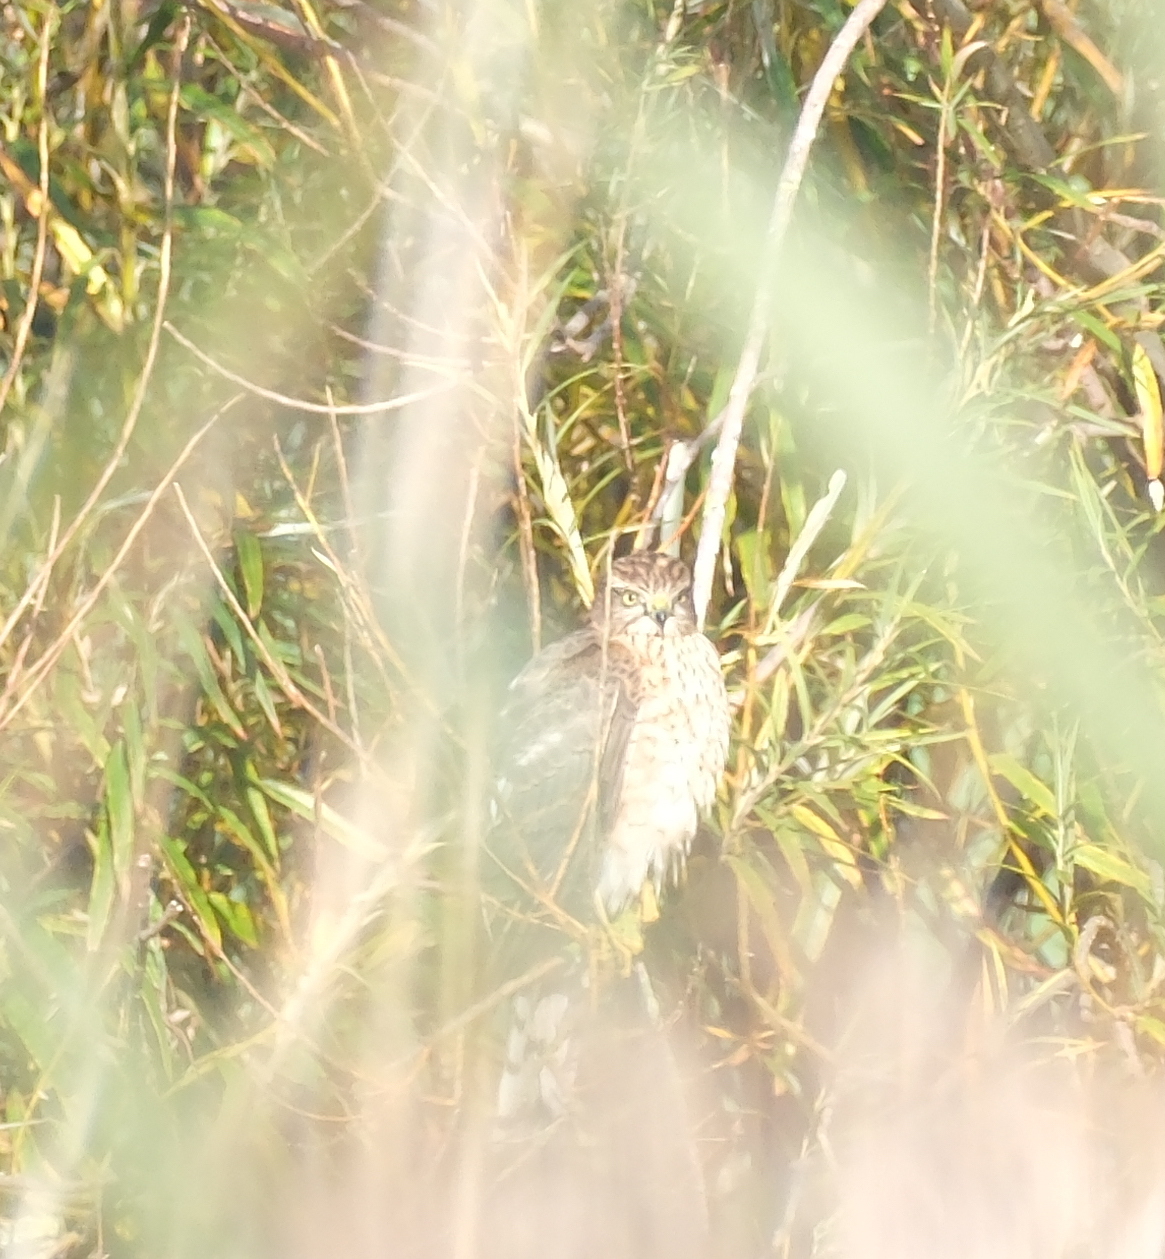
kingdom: Animalia
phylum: Chordata
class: Aves
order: Accipitriformes
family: Accipitridae
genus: Accipiter
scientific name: Accipiter gentilis
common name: Northern goshawk
